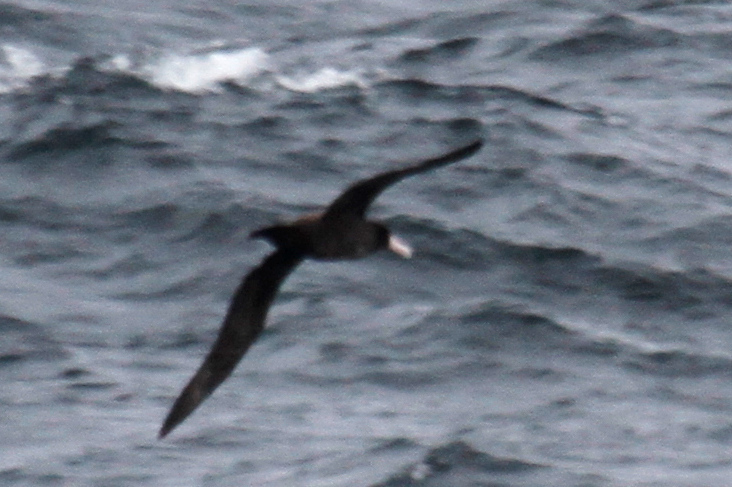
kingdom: Animalia
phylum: Chordata
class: Aves
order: Procellariiformes
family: Diomedeidae
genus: Phoebastria
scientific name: Phoebastria albatrus
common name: Short-tailed albatross
